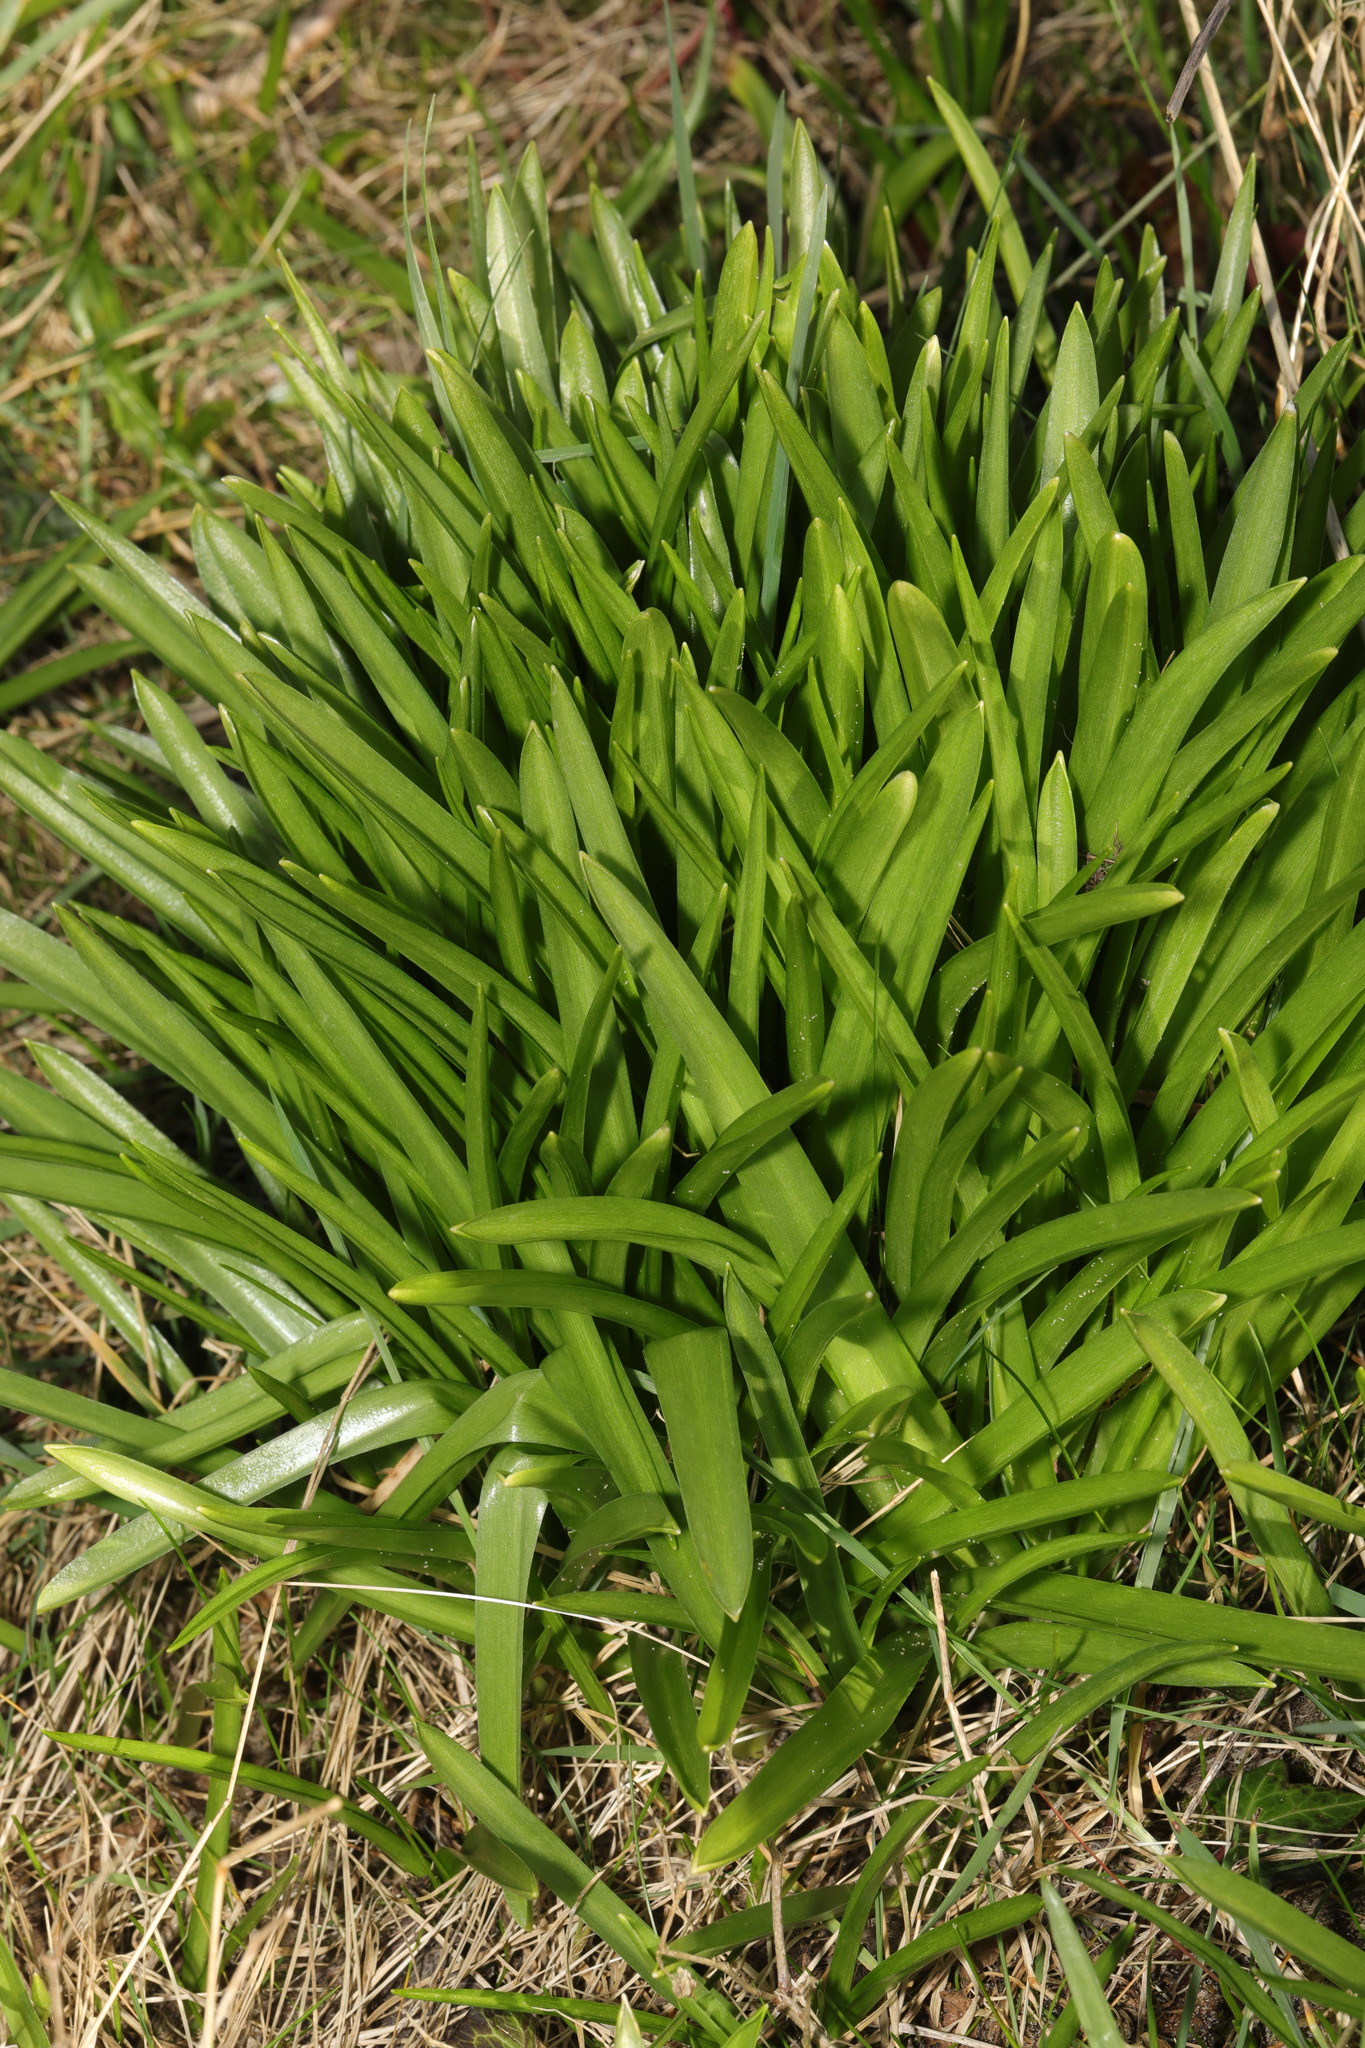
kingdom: Plantae
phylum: Tracheophyta
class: Liliopsida
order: Asparagales
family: Asparagaceae
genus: Hyacinthoides
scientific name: Hyacinthoides massartiana
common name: Hyacinthoides
